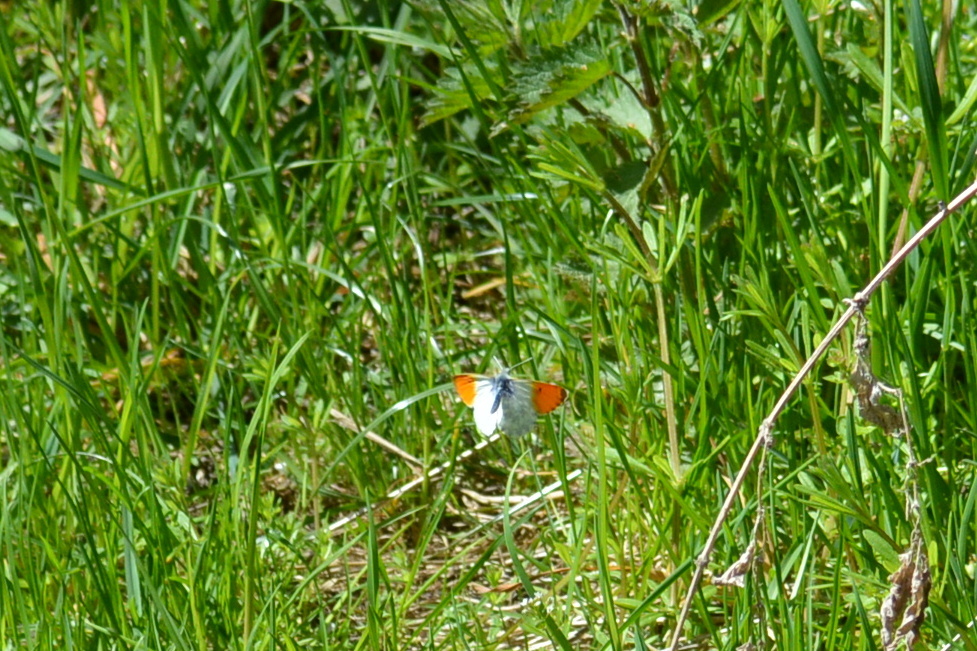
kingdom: Animalia
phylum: Arthropoda
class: Insecta
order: Lepidoptera
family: Pieridae
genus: Anthocharis
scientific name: Anthocharis cardamines
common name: Orange-tip
